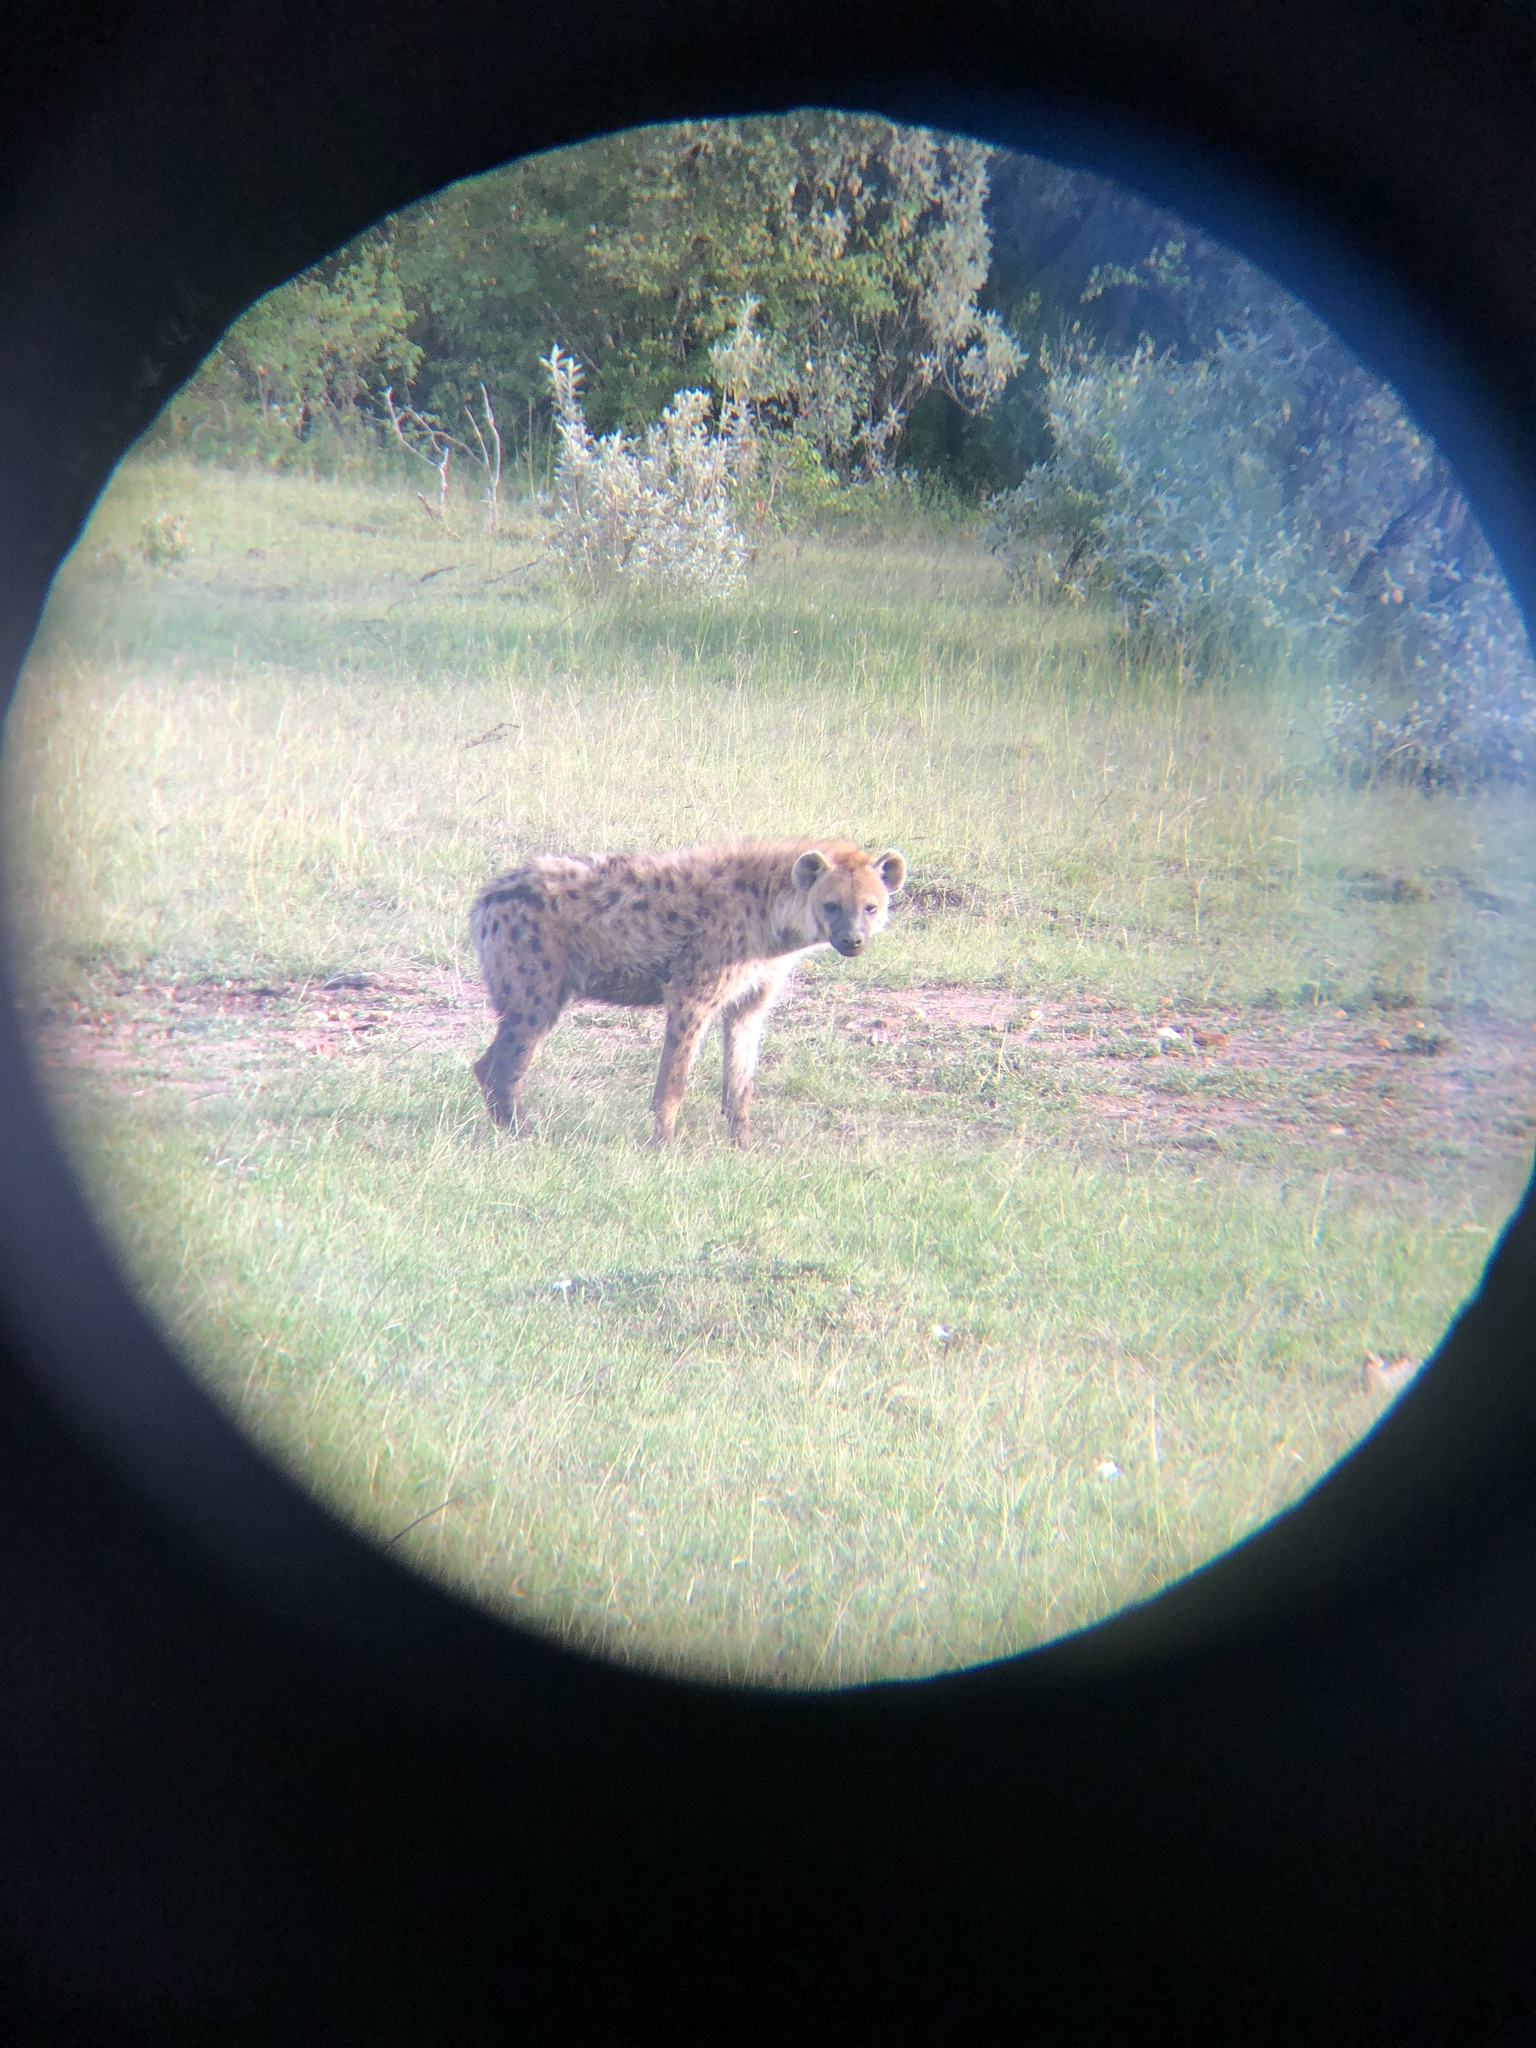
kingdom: Animalia
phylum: Chordata
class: Mammalia
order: Carnivora
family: Hyaenidae
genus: Crocuta
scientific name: Crocuta crocuta
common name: Spotted hyaena
